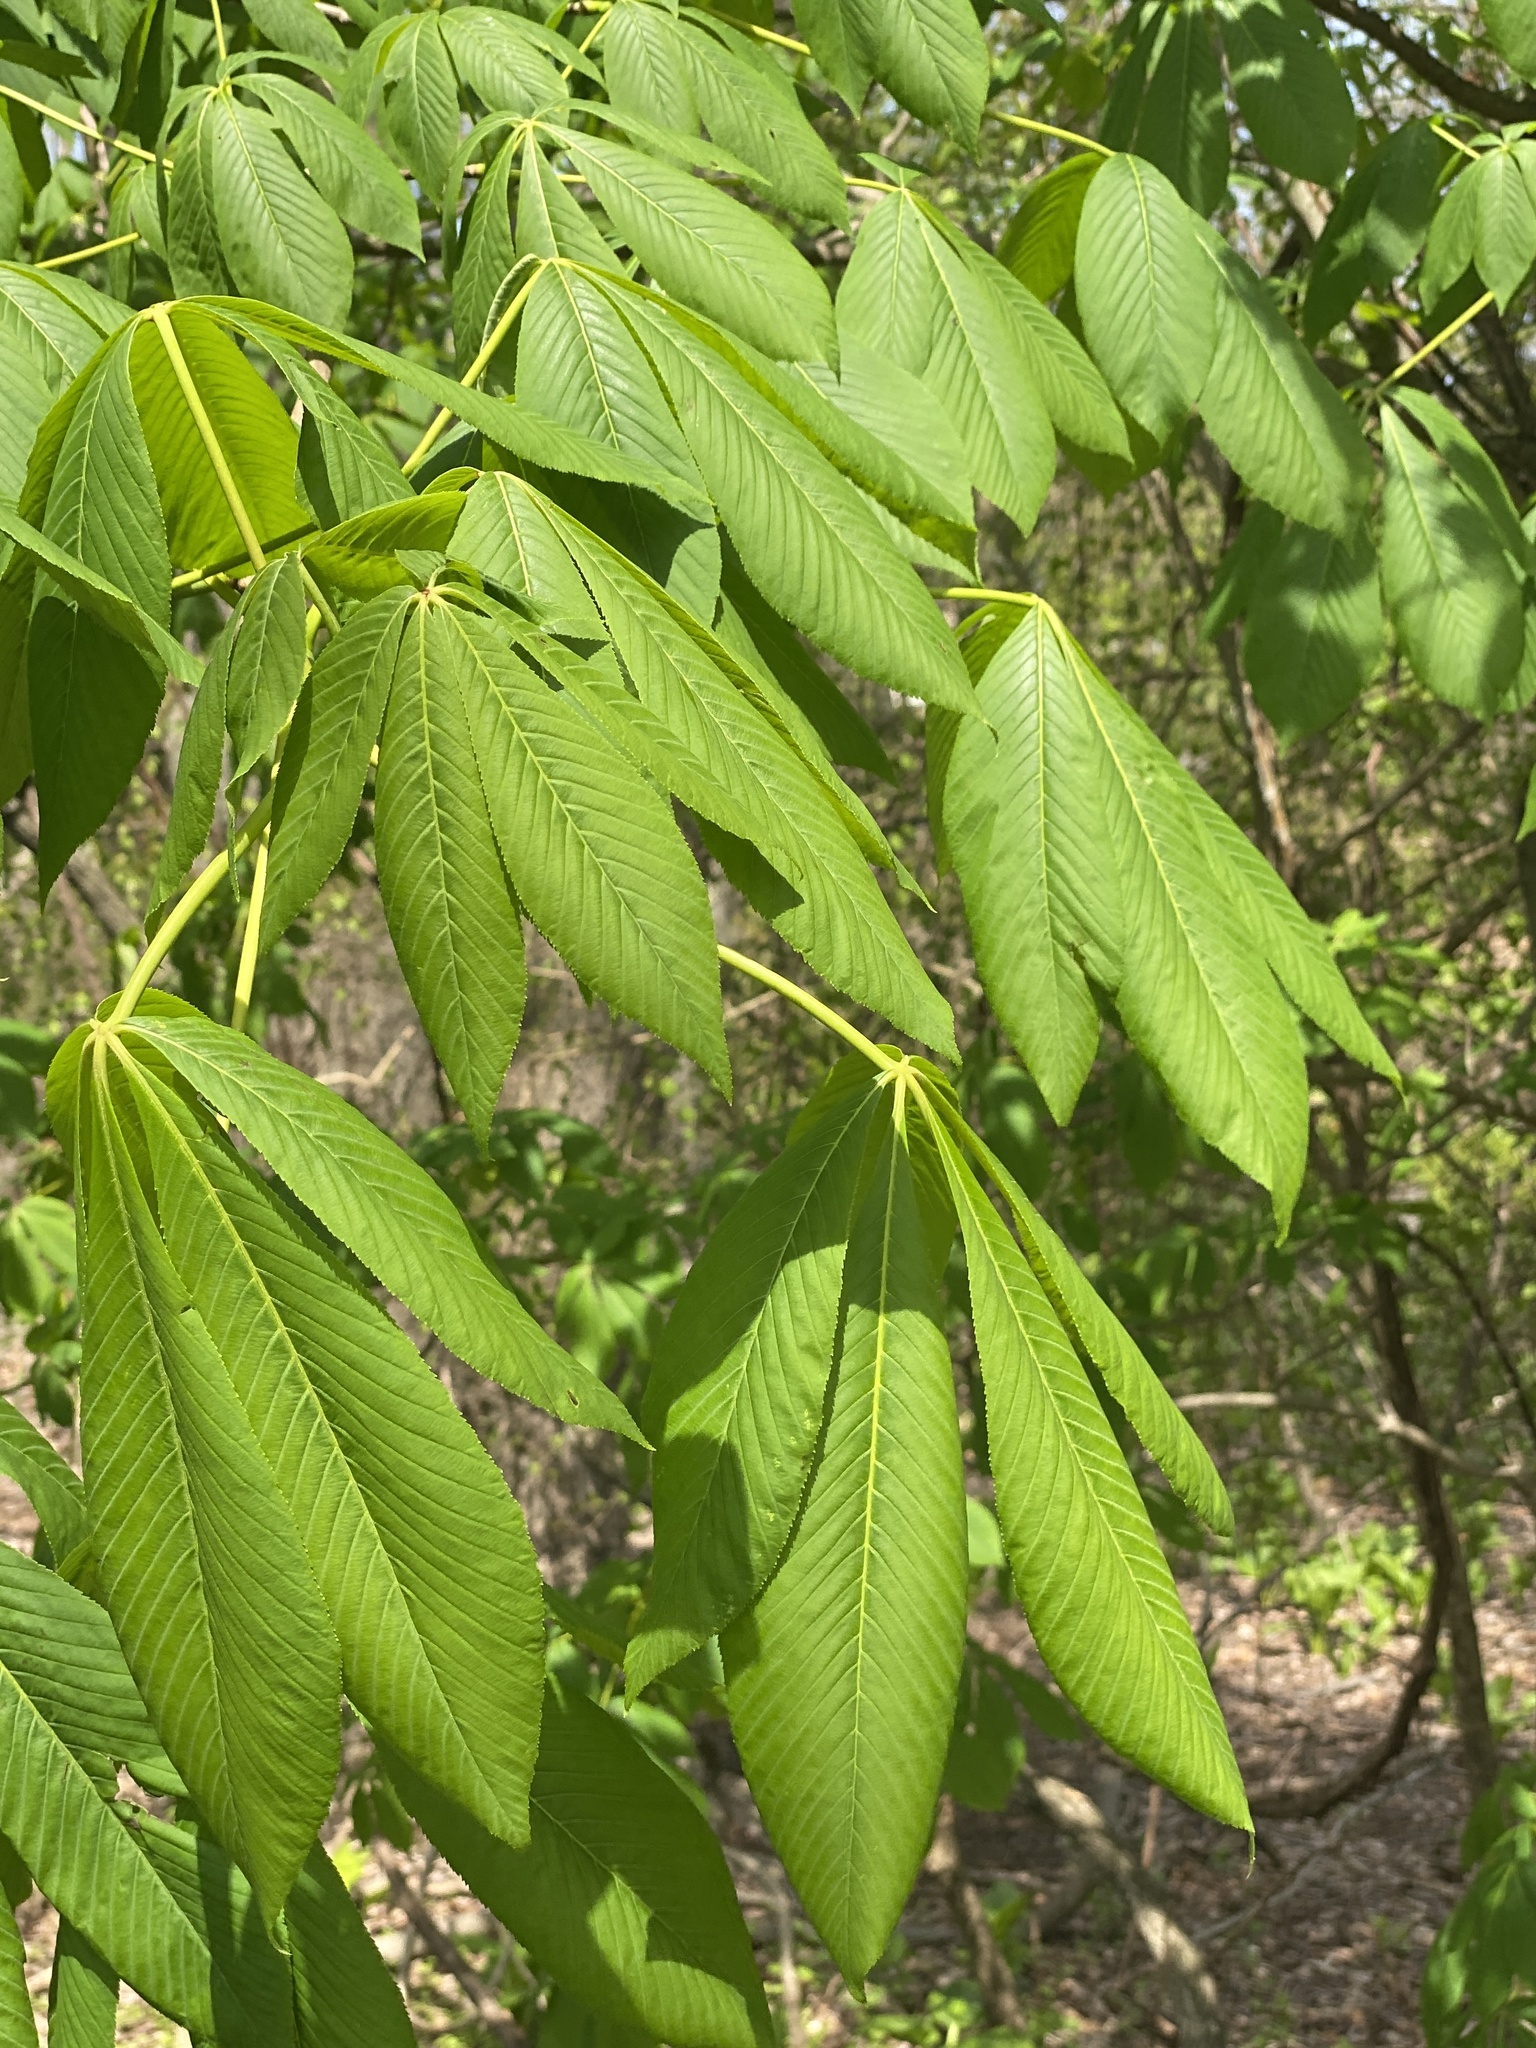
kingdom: Plantae
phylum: Tracheophyta
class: Magnoliopsida
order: Sapindales
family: Sapindaceae
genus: Aesculus
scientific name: Aesculus flava
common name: Yellow buckeye
